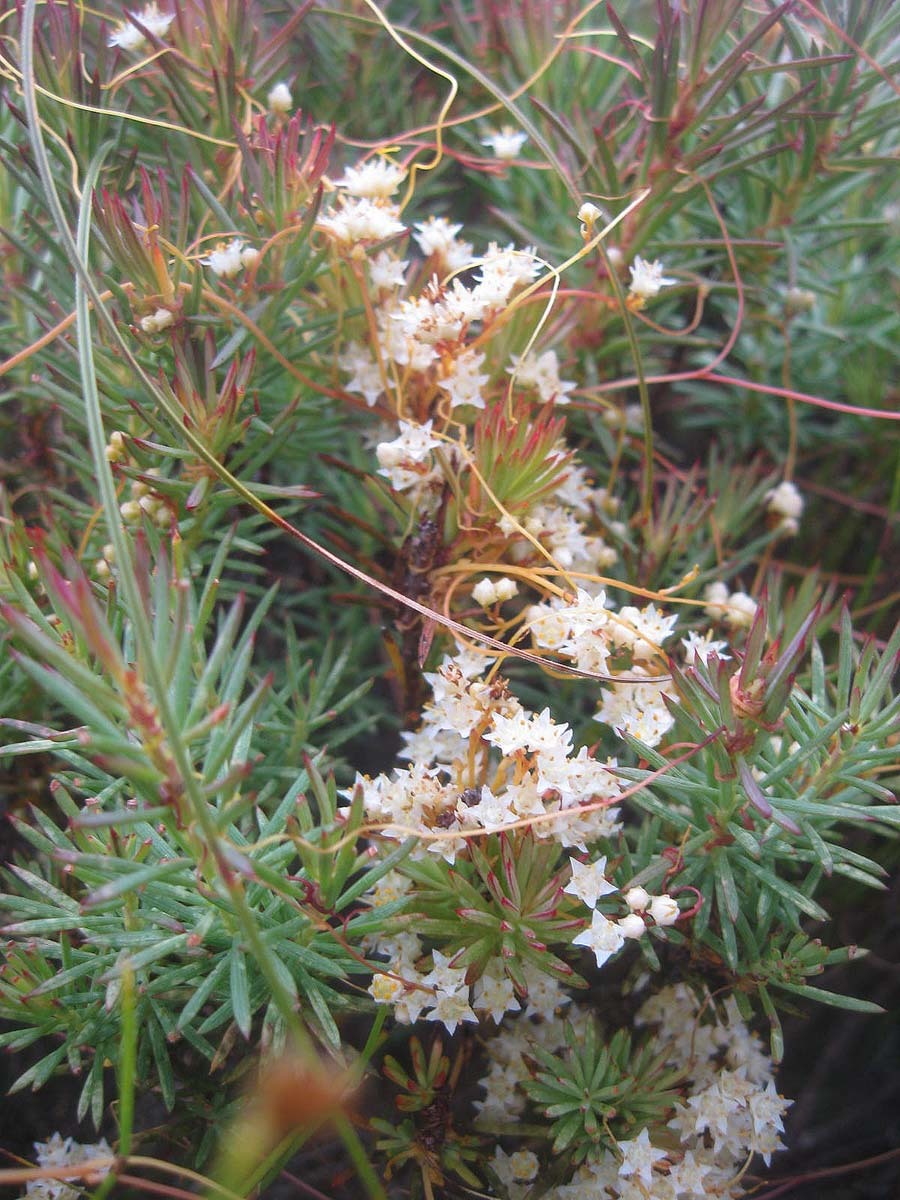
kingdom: Plantae
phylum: Tracheophyta
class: Magnoliopsida
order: Solanales
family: Convolvulaceae
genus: Cuscuta
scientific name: Cuscuta angulata
